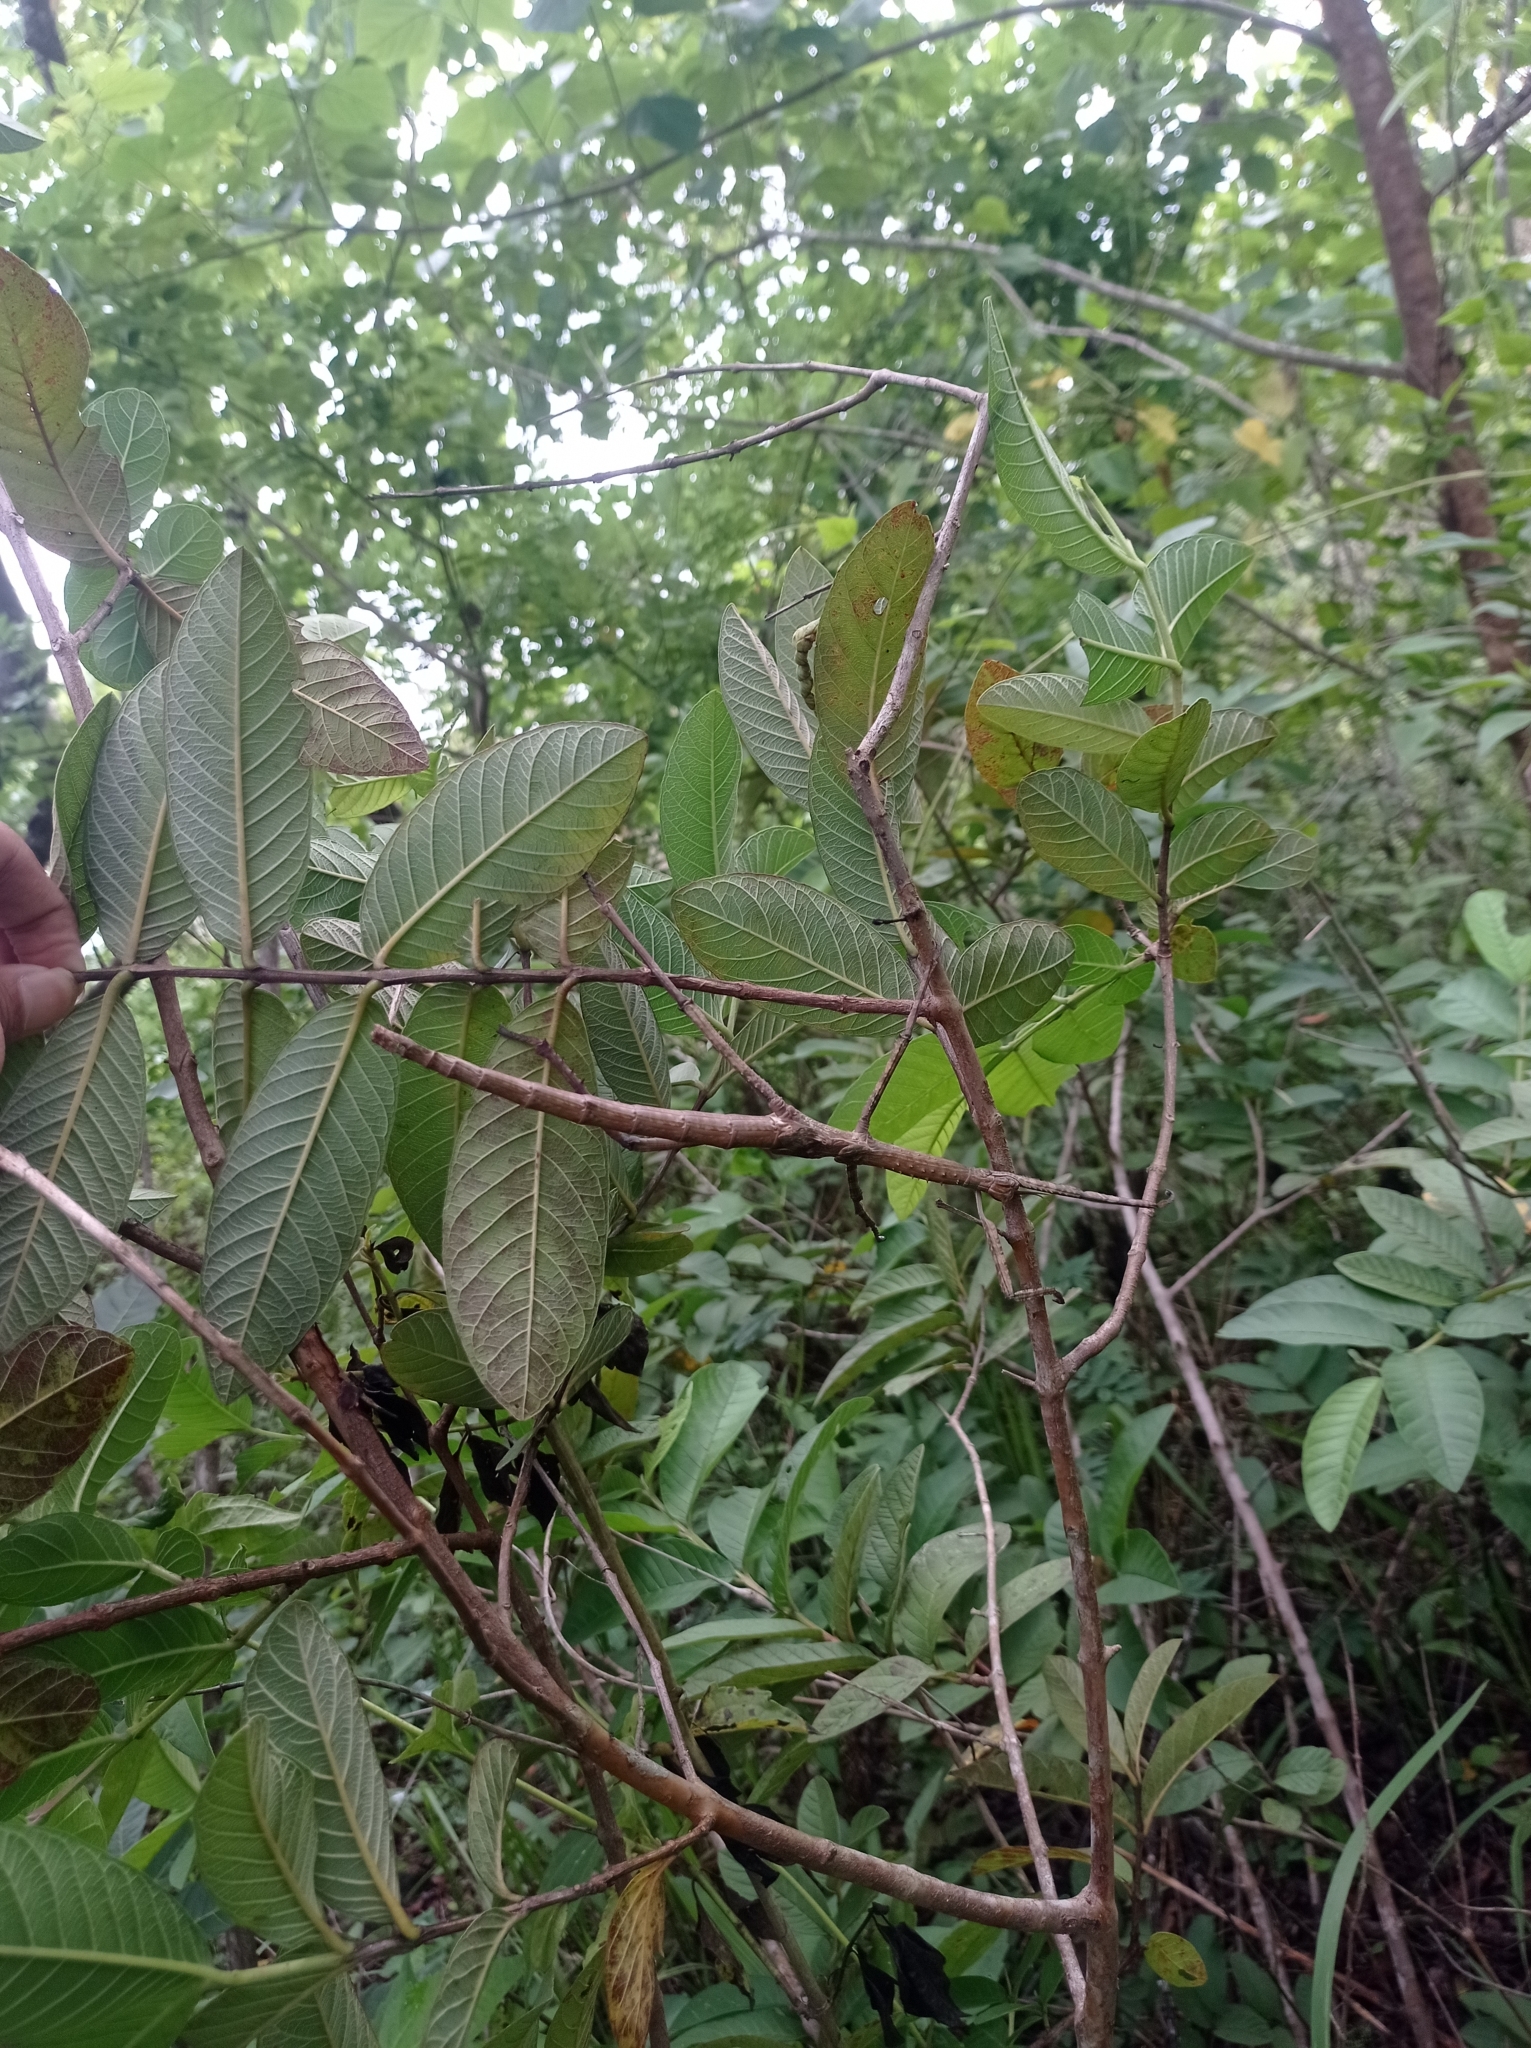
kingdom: Animalia
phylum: Arthropoda
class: Insecta
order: Phasmida
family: Phasmatidae
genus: Eurycnema
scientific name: Eurycnema versirubra
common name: Red-winged green giant stick-insect
